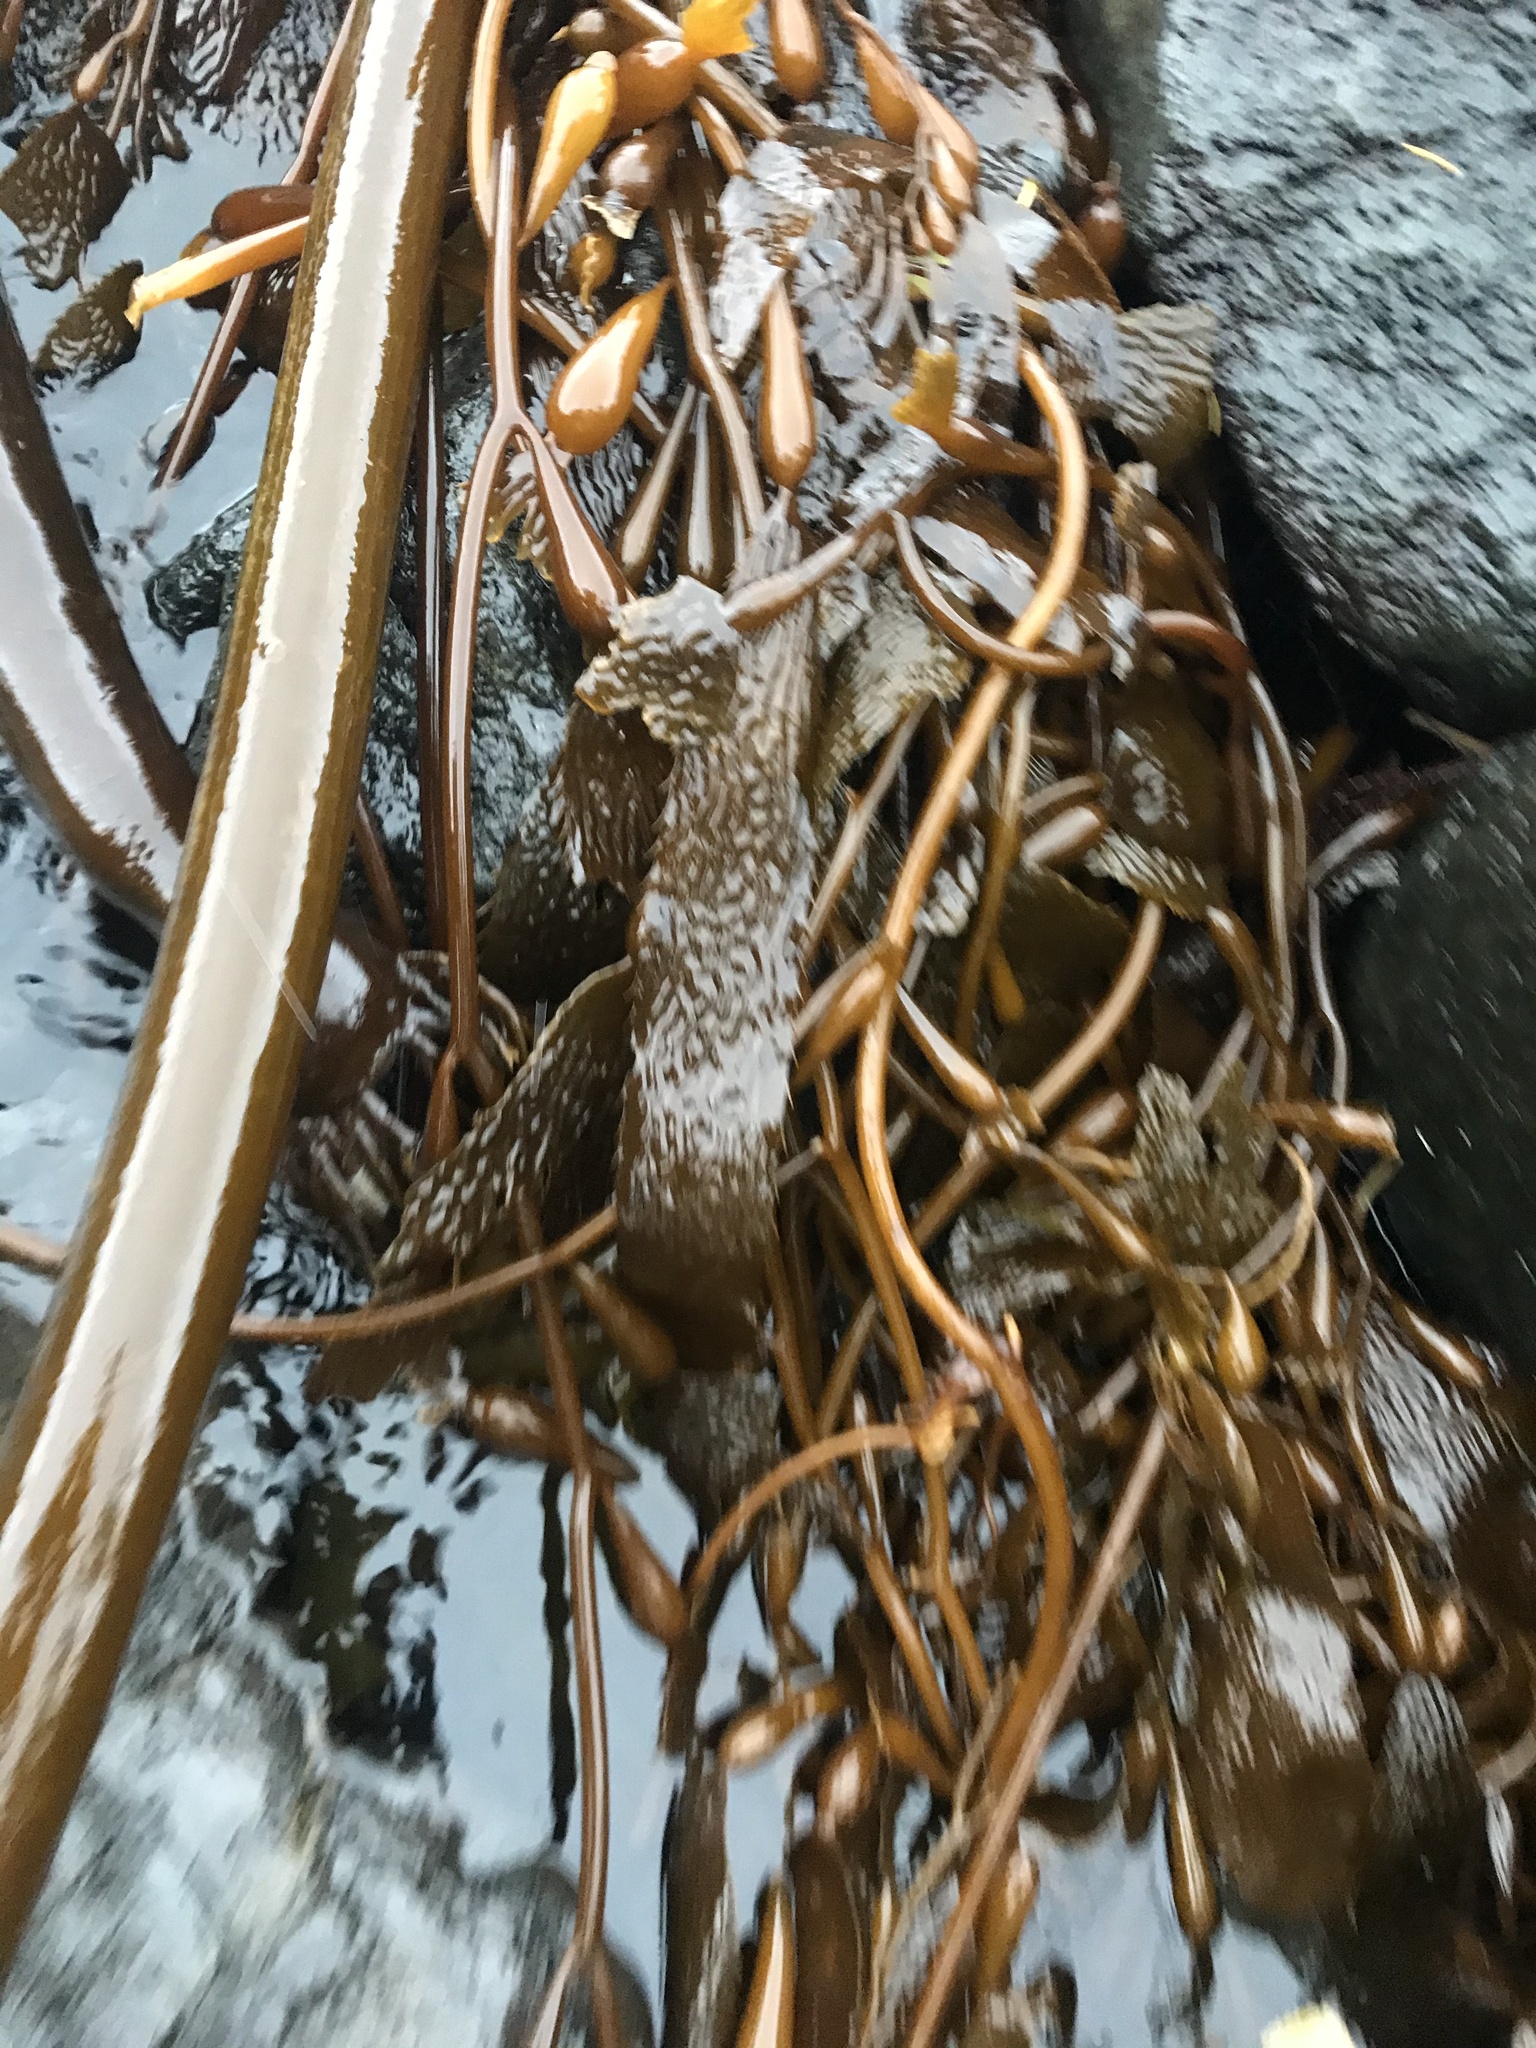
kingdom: Chromista
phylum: Ochrophyta
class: Phaeophyceae
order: Laminariales
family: Laminariaceae
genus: Macrocystis
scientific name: Macrocystis pyrifera
